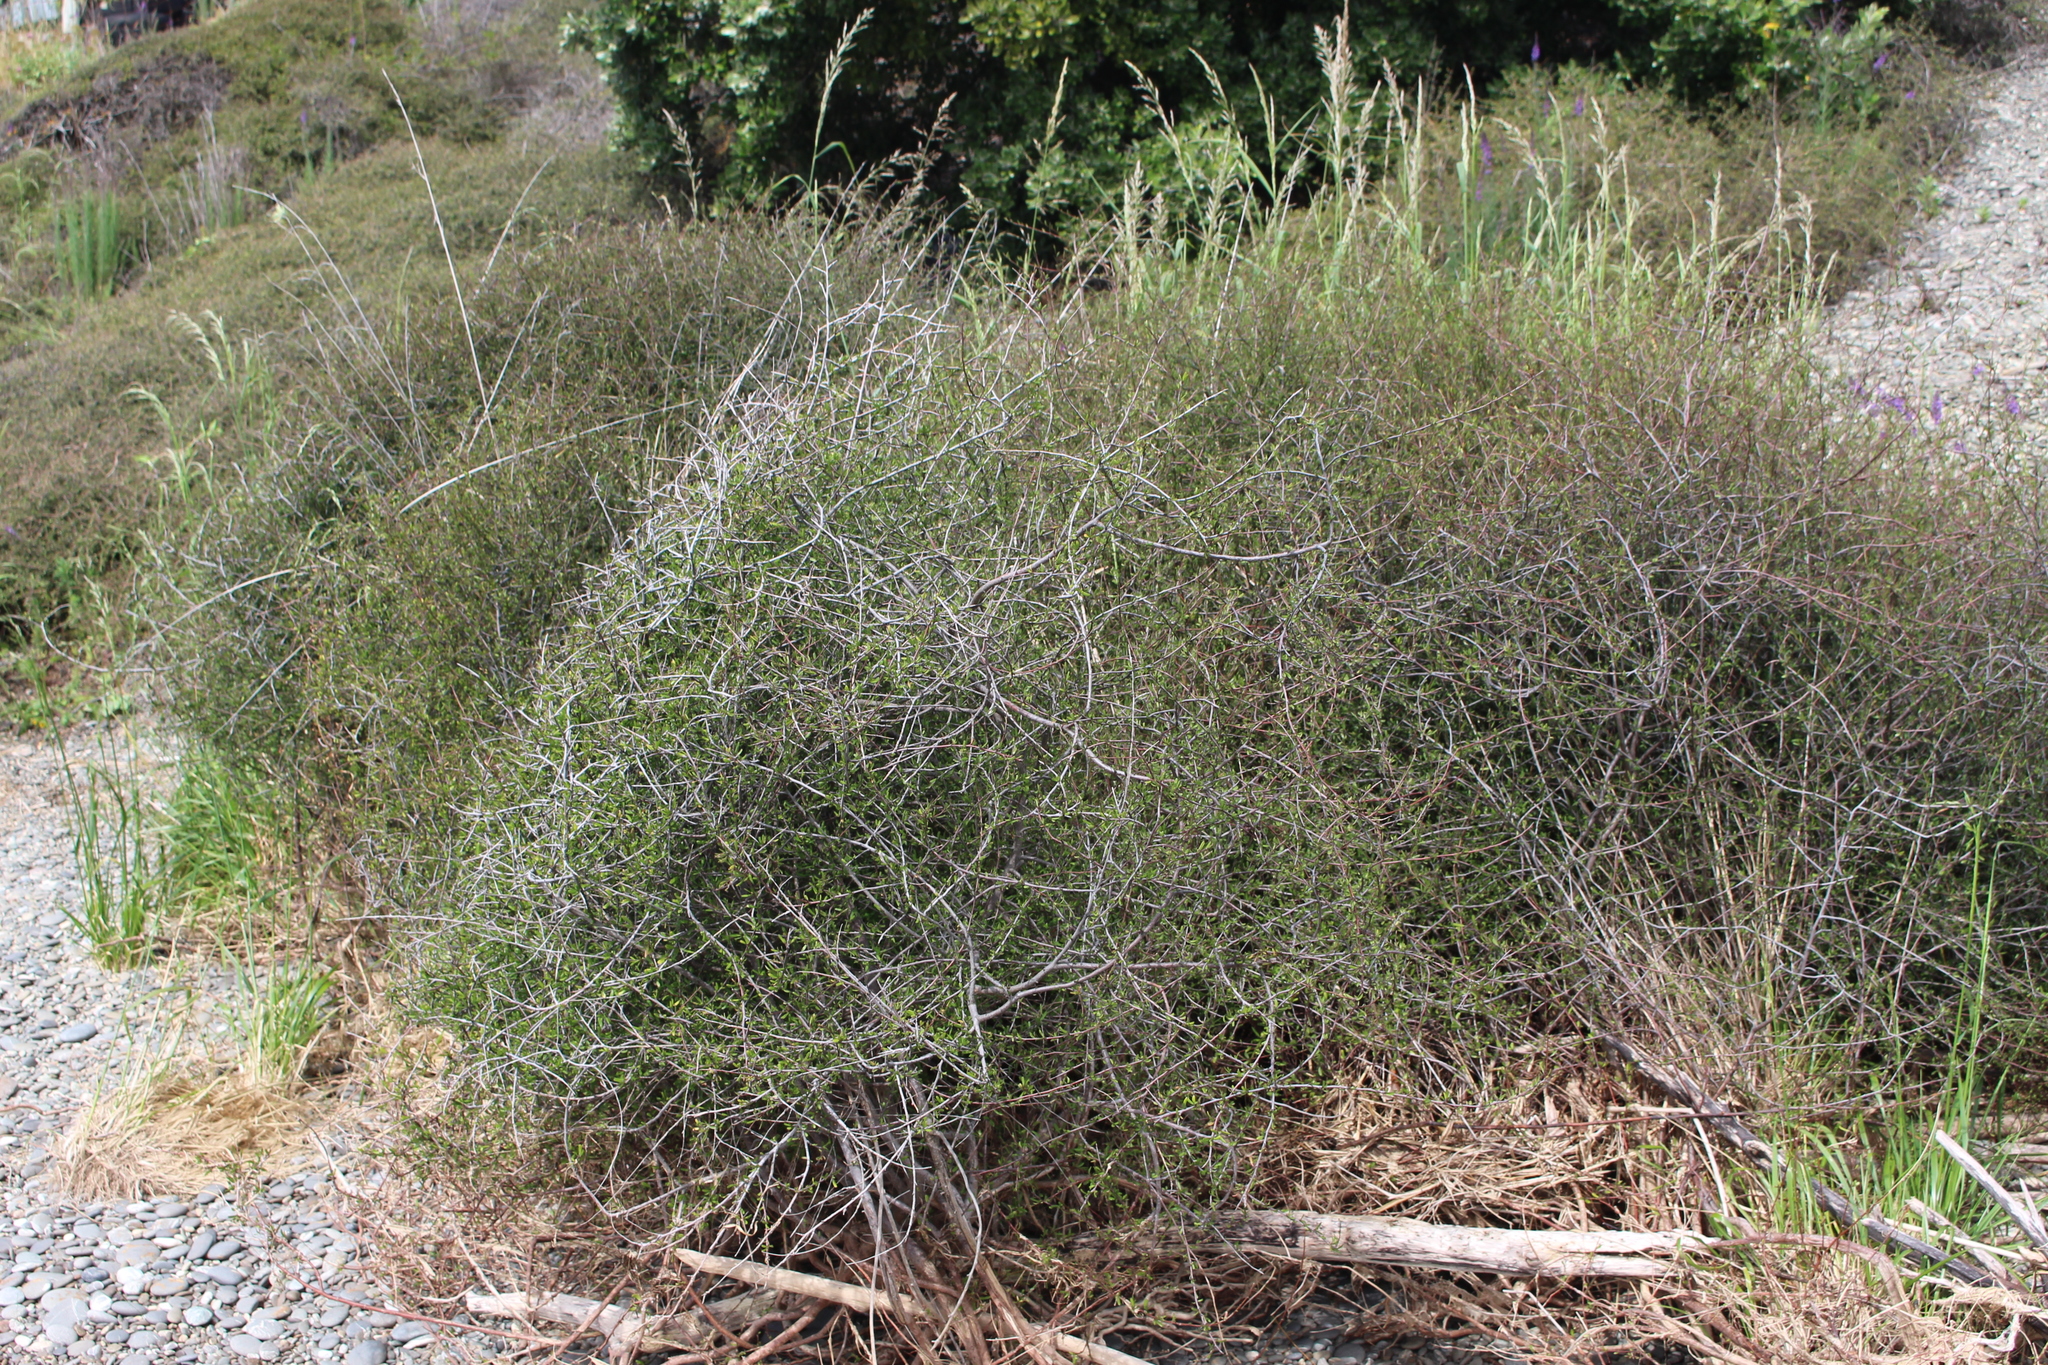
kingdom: Plantae
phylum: Tracheophyta
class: Magnoliopsida
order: Malvales
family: Malvaceae
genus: Plagianthus
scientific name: Plagianthus divaricatus
